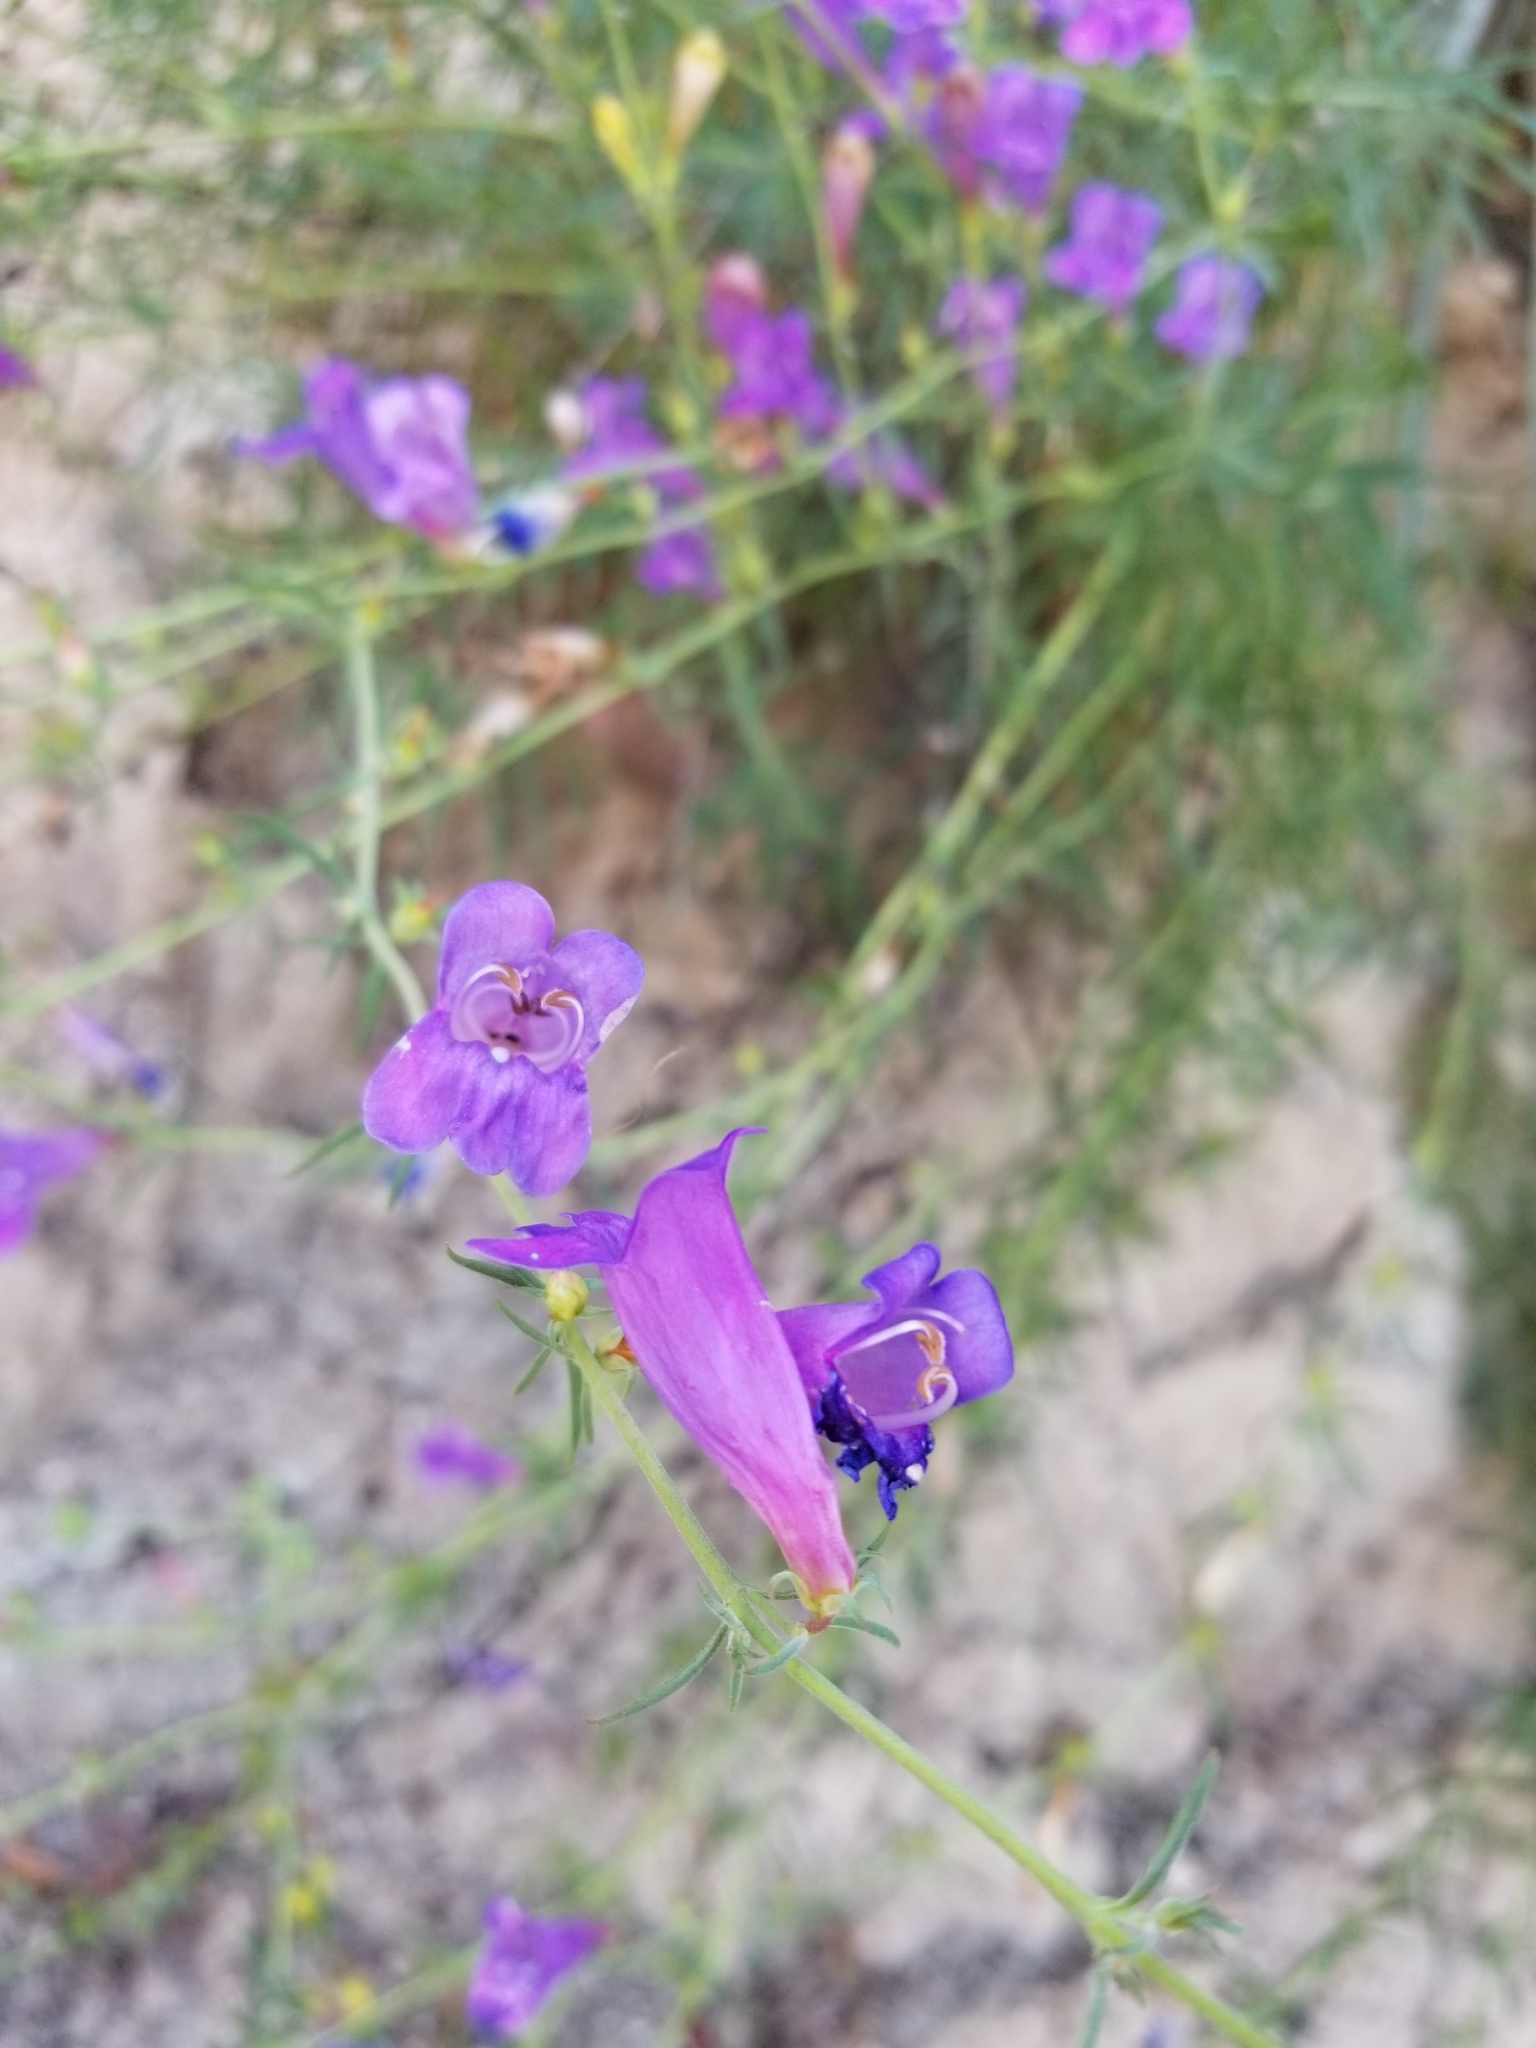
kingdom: Plantae
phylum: Tracheophyta
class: Magnoliopsida
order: Lamiales
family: Plantaginaceae
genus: Penstemon
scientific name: Penstemon heterophyllus
